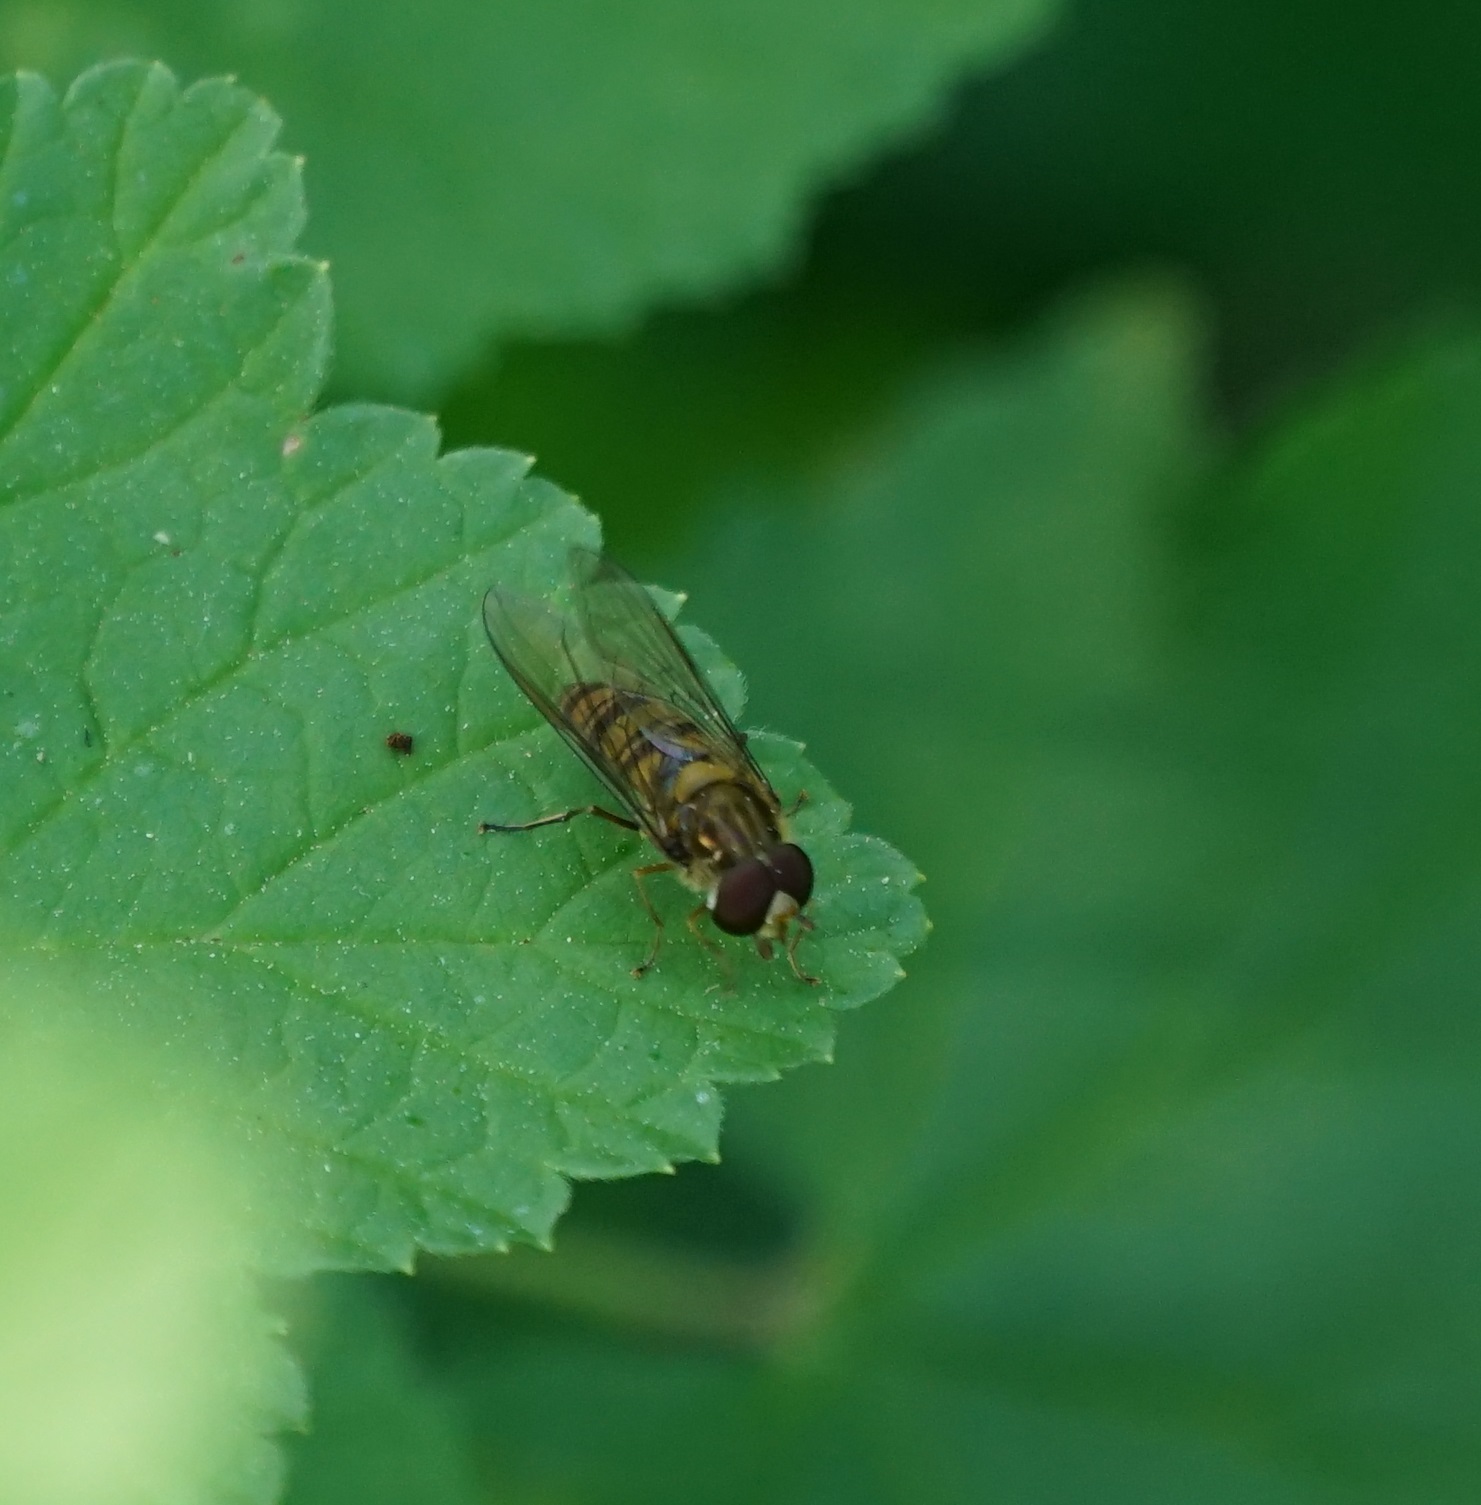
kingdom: Animalia
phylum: Arthropoda
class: Insecta
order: Diptera
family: Syrphidae
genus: Episyrphus
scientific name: Episyrphus balteatus
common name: Marmalade hoverfly
